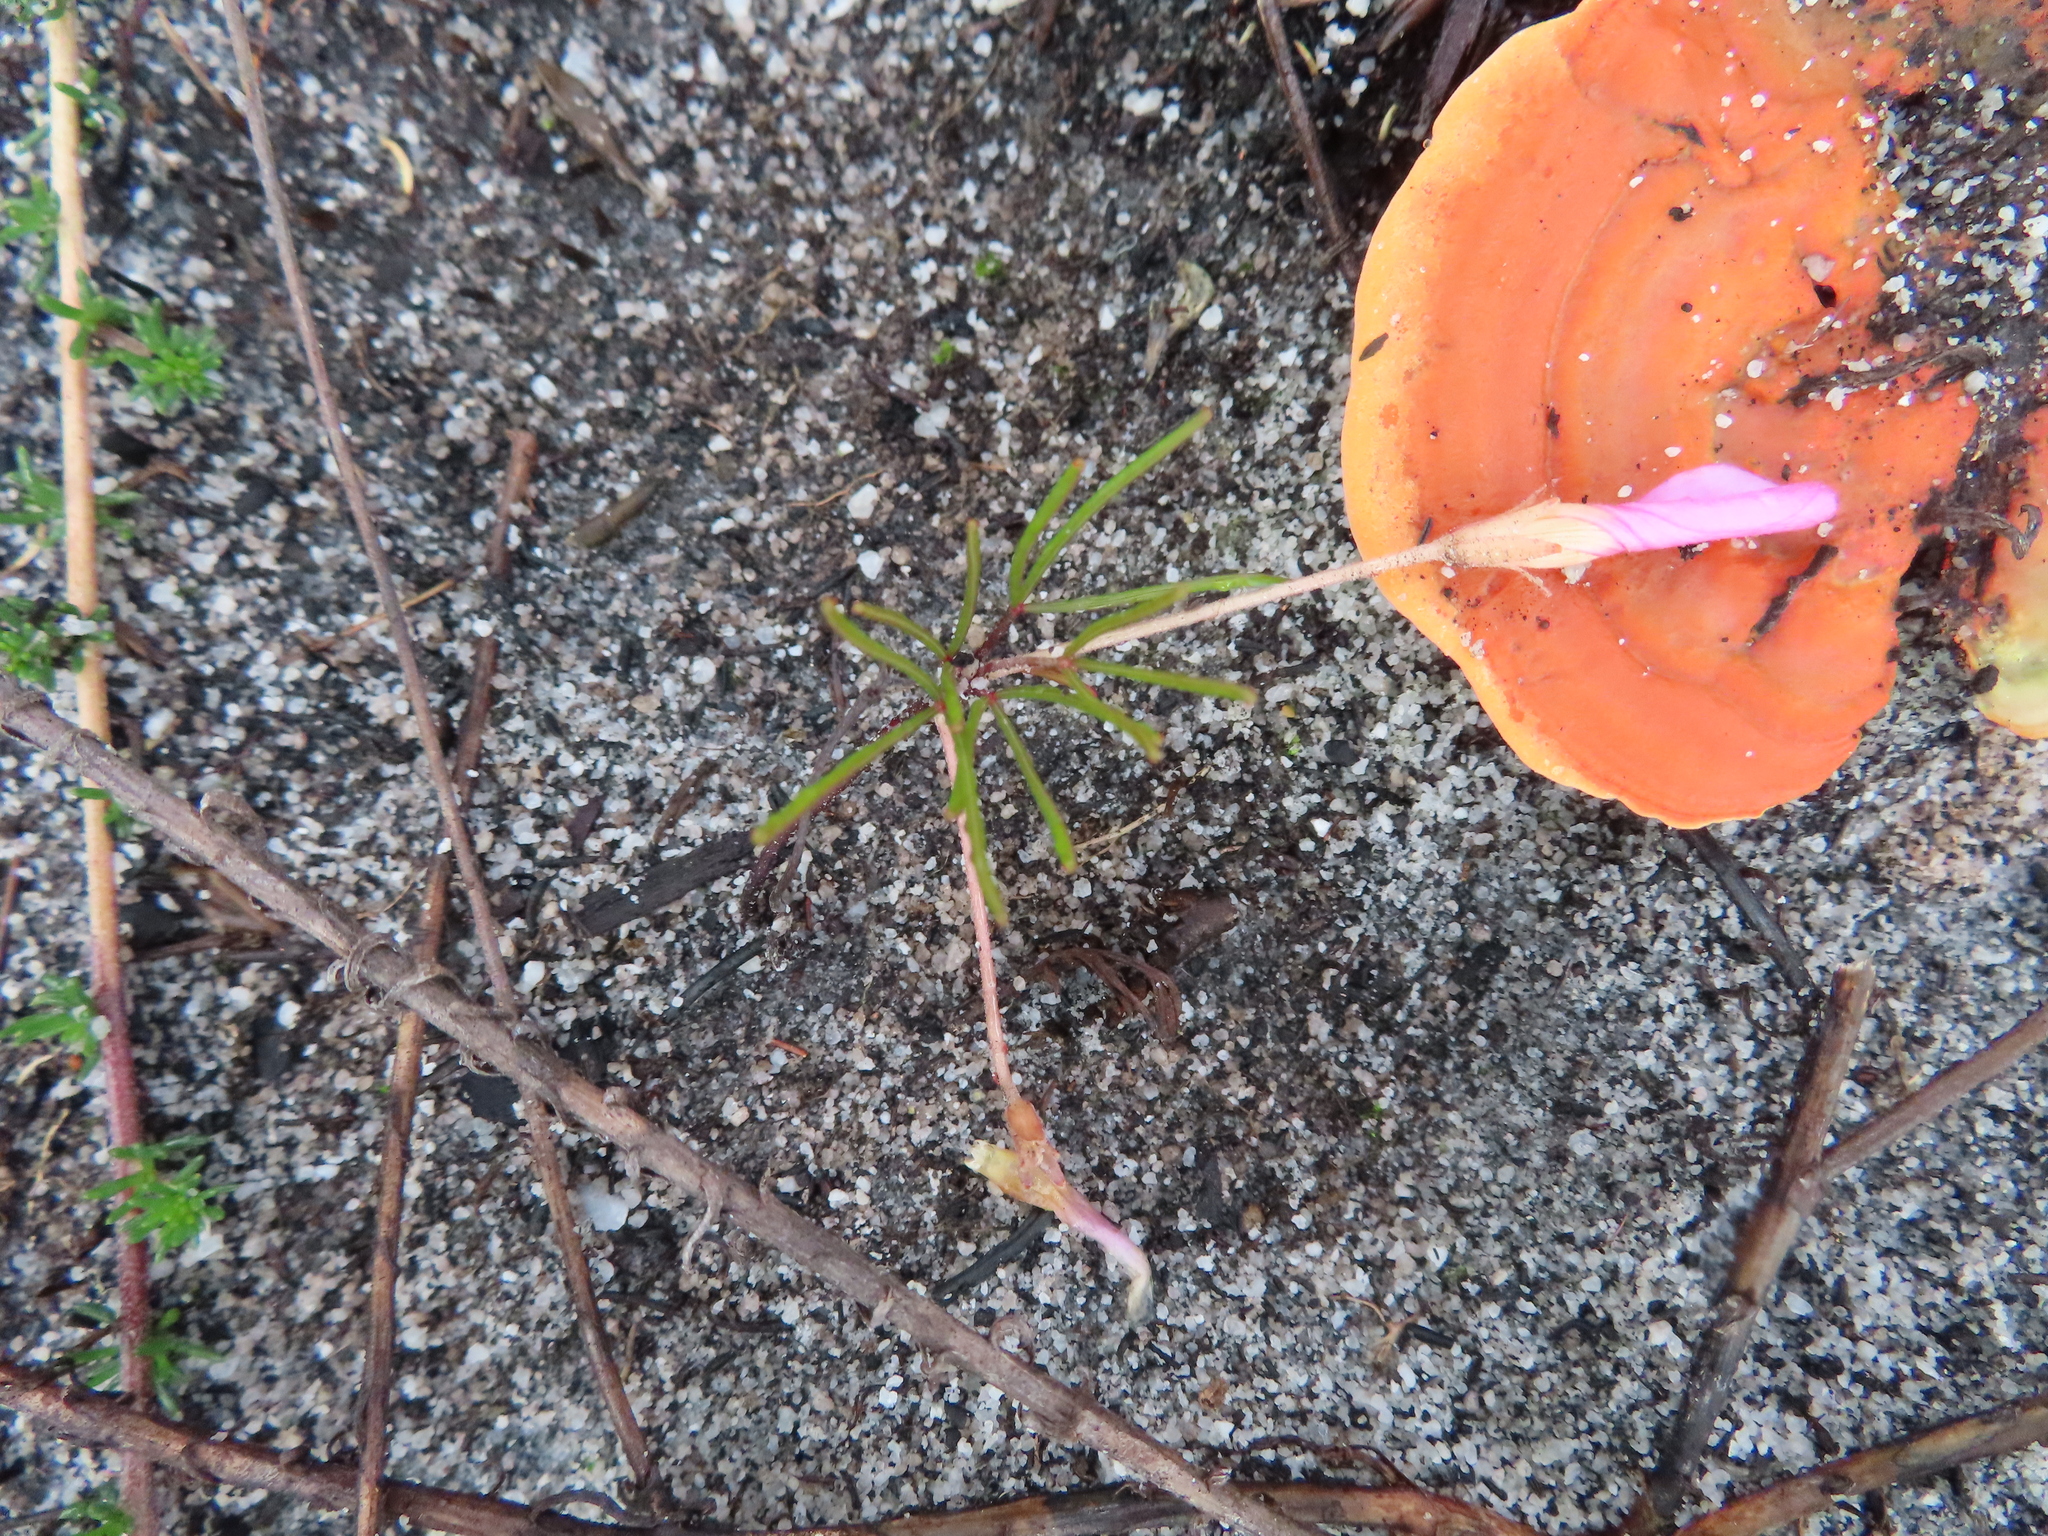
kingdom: Plantae
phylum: Tracheophyta
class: Magnoliopsida
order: Oxalidales
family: Oxalidaceae
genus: Oxalis
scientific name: Oxalis polyphylla
